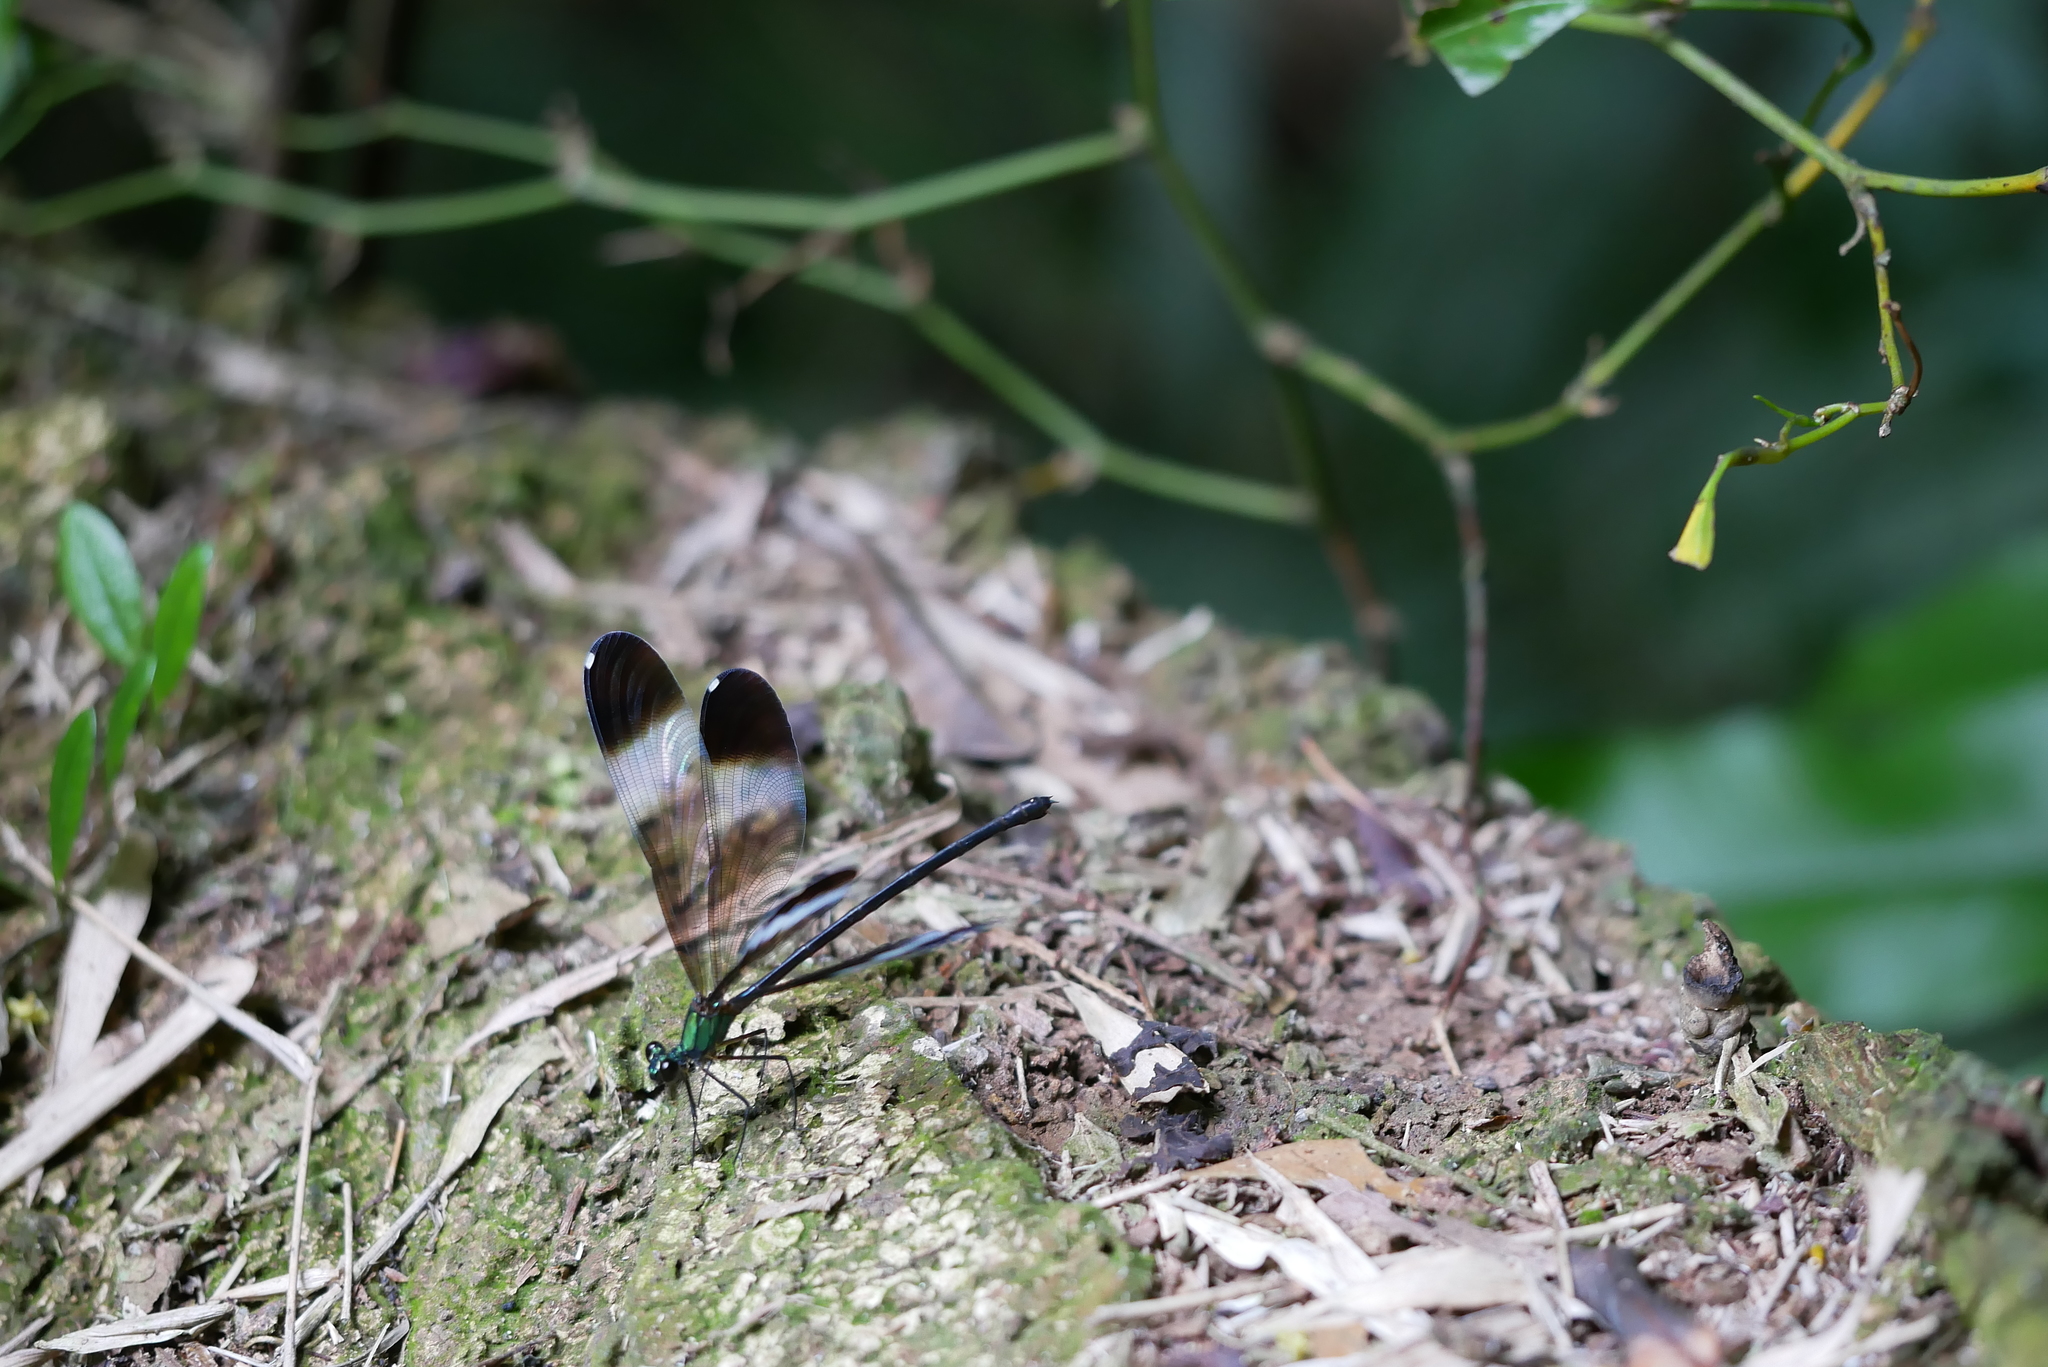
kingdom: Animalia
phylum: Arthropoda
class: Insecta
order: Odonata
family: Calopterygidae
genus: Psolodesmus
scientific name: Psolodesmus mandarinus
